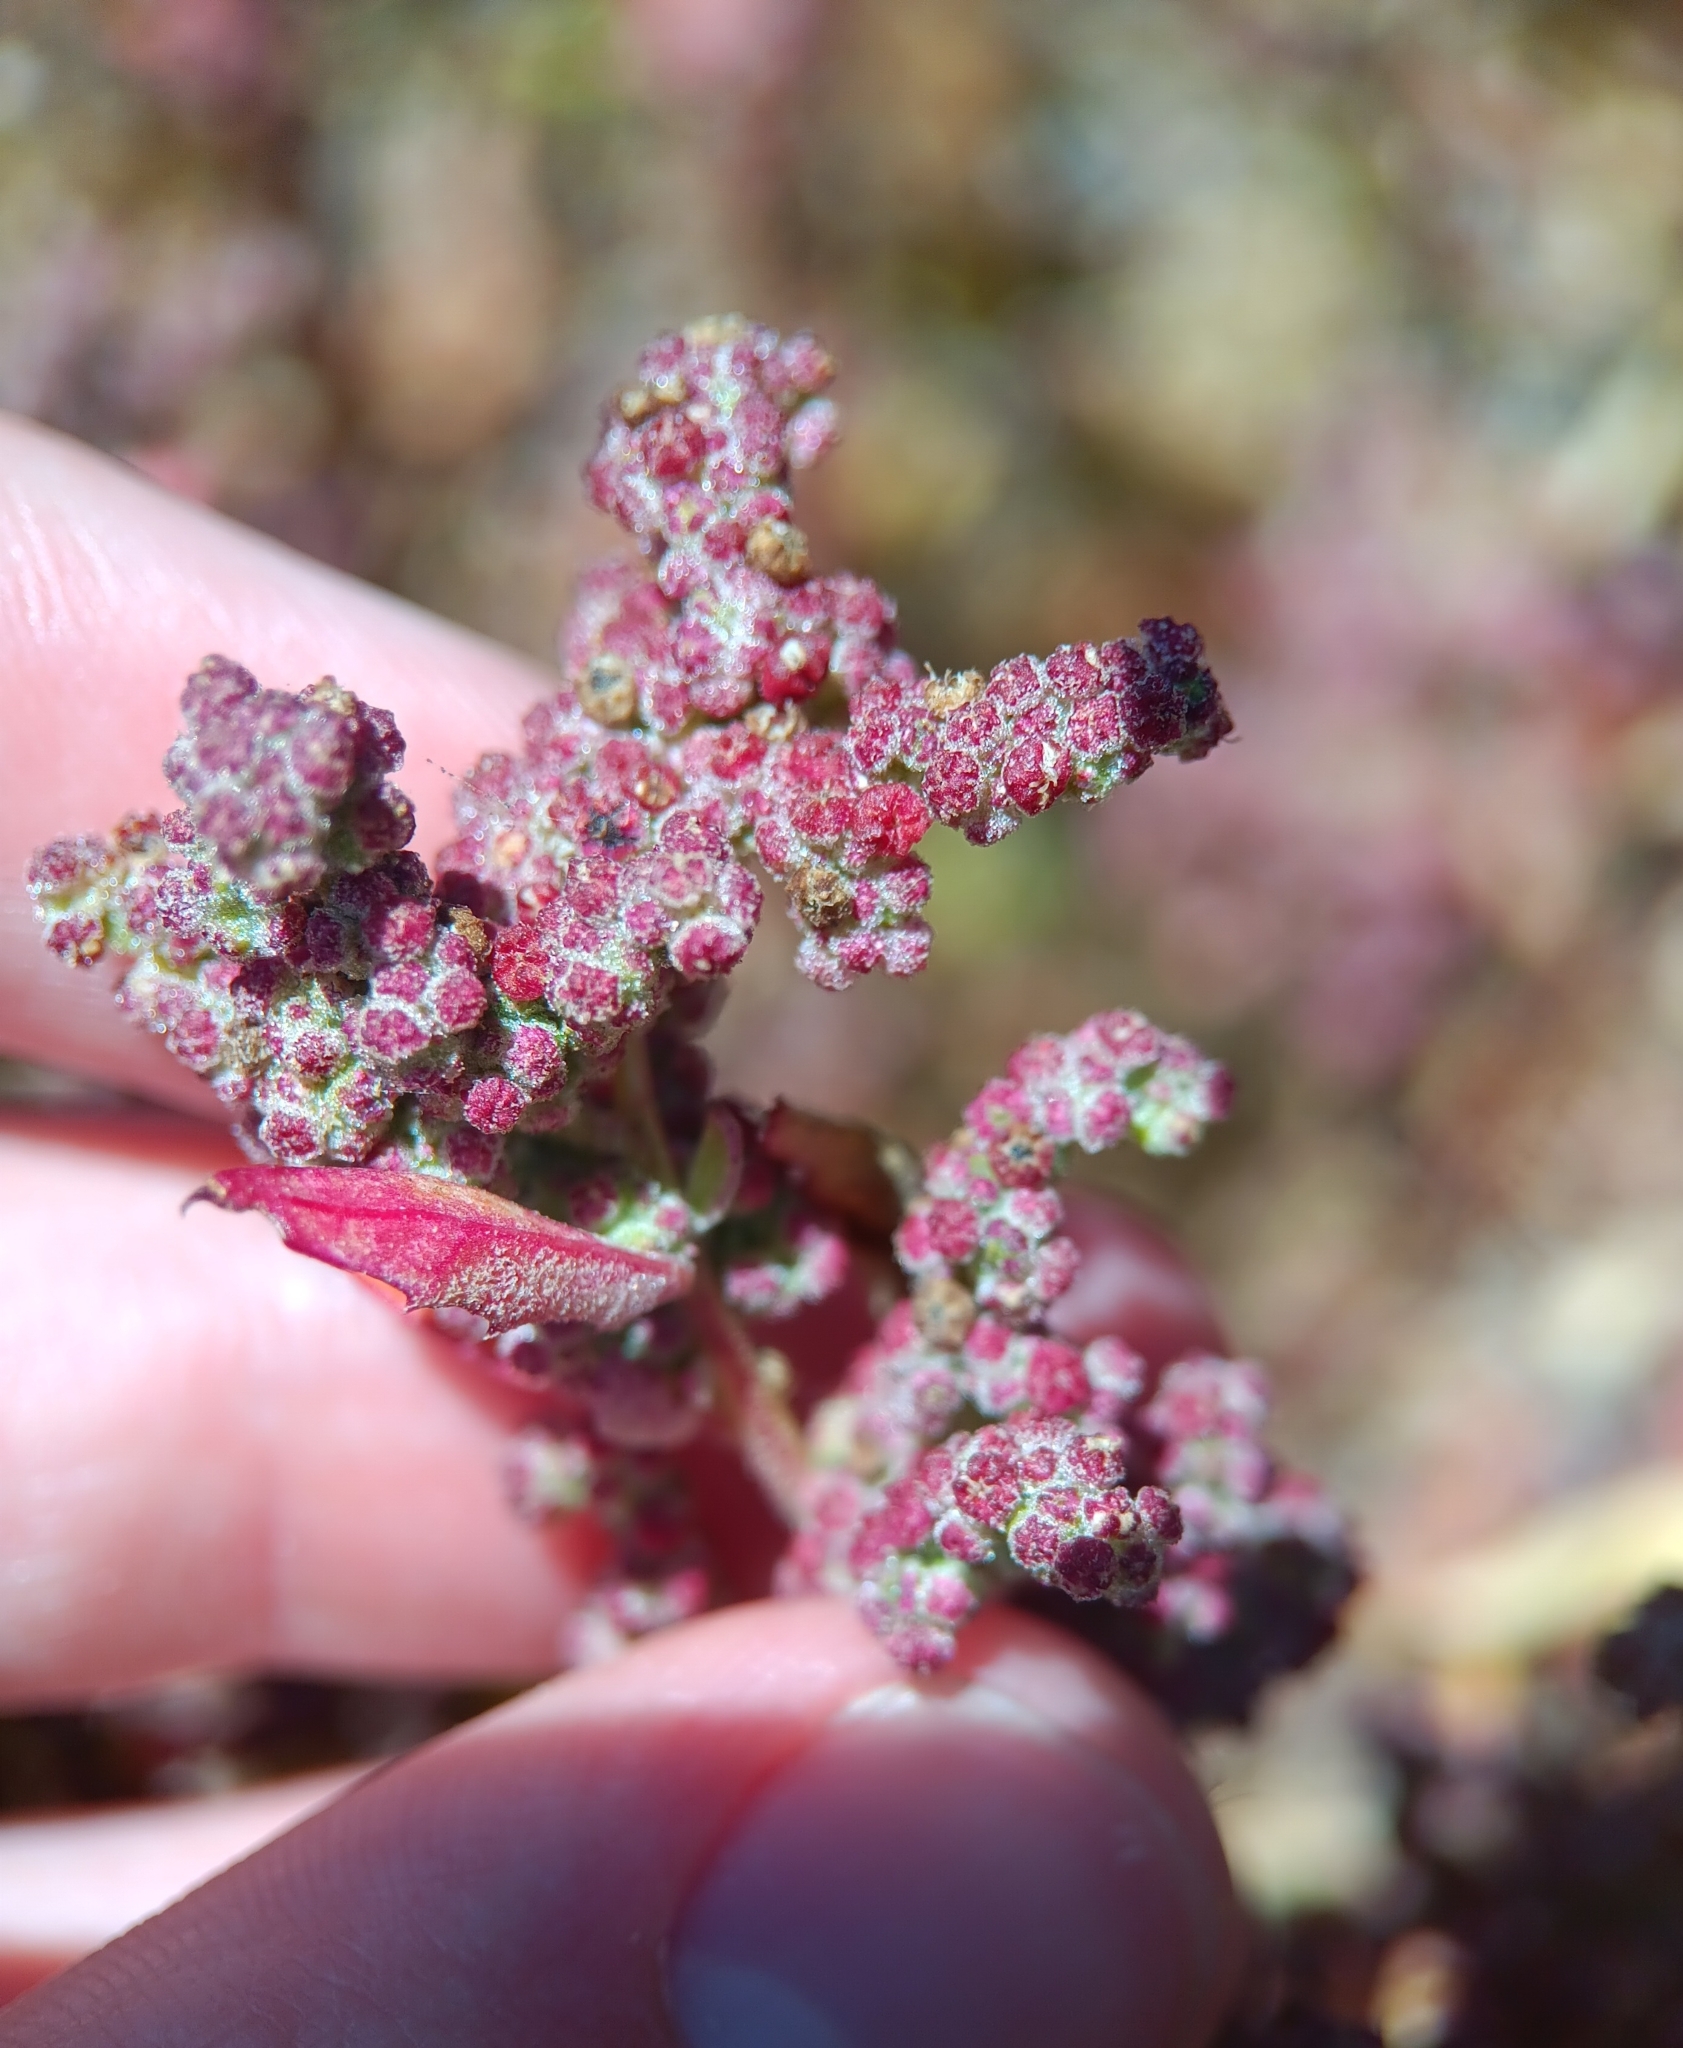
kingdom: Plantae
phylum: Tracheophyta
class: Magnoliopsida
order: Caryophyllales
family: Amaranthaceae
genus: Chenopodiastrum
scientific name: Chenopodiastrum murale
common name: Sowbane
